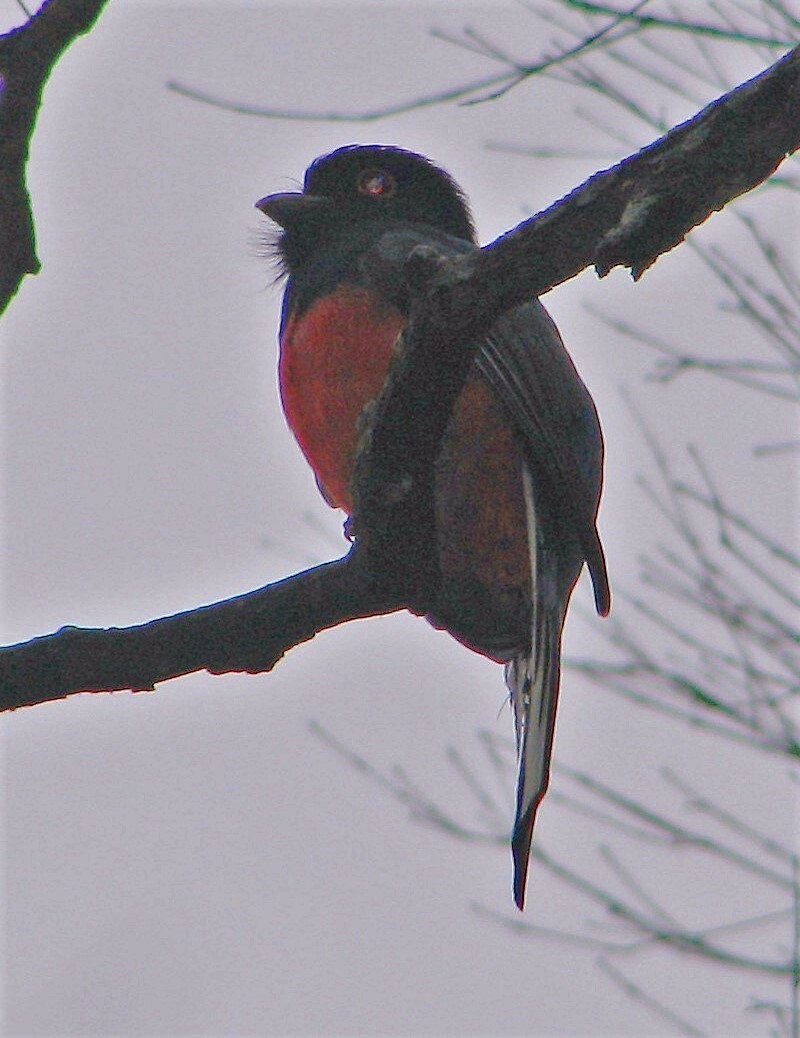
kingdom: Animalia
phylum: Chordata
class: Aves
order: Trogoniformes
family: Trogonidae
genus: Trogon
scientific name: Trogon surrucura
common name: Surucua trogon
